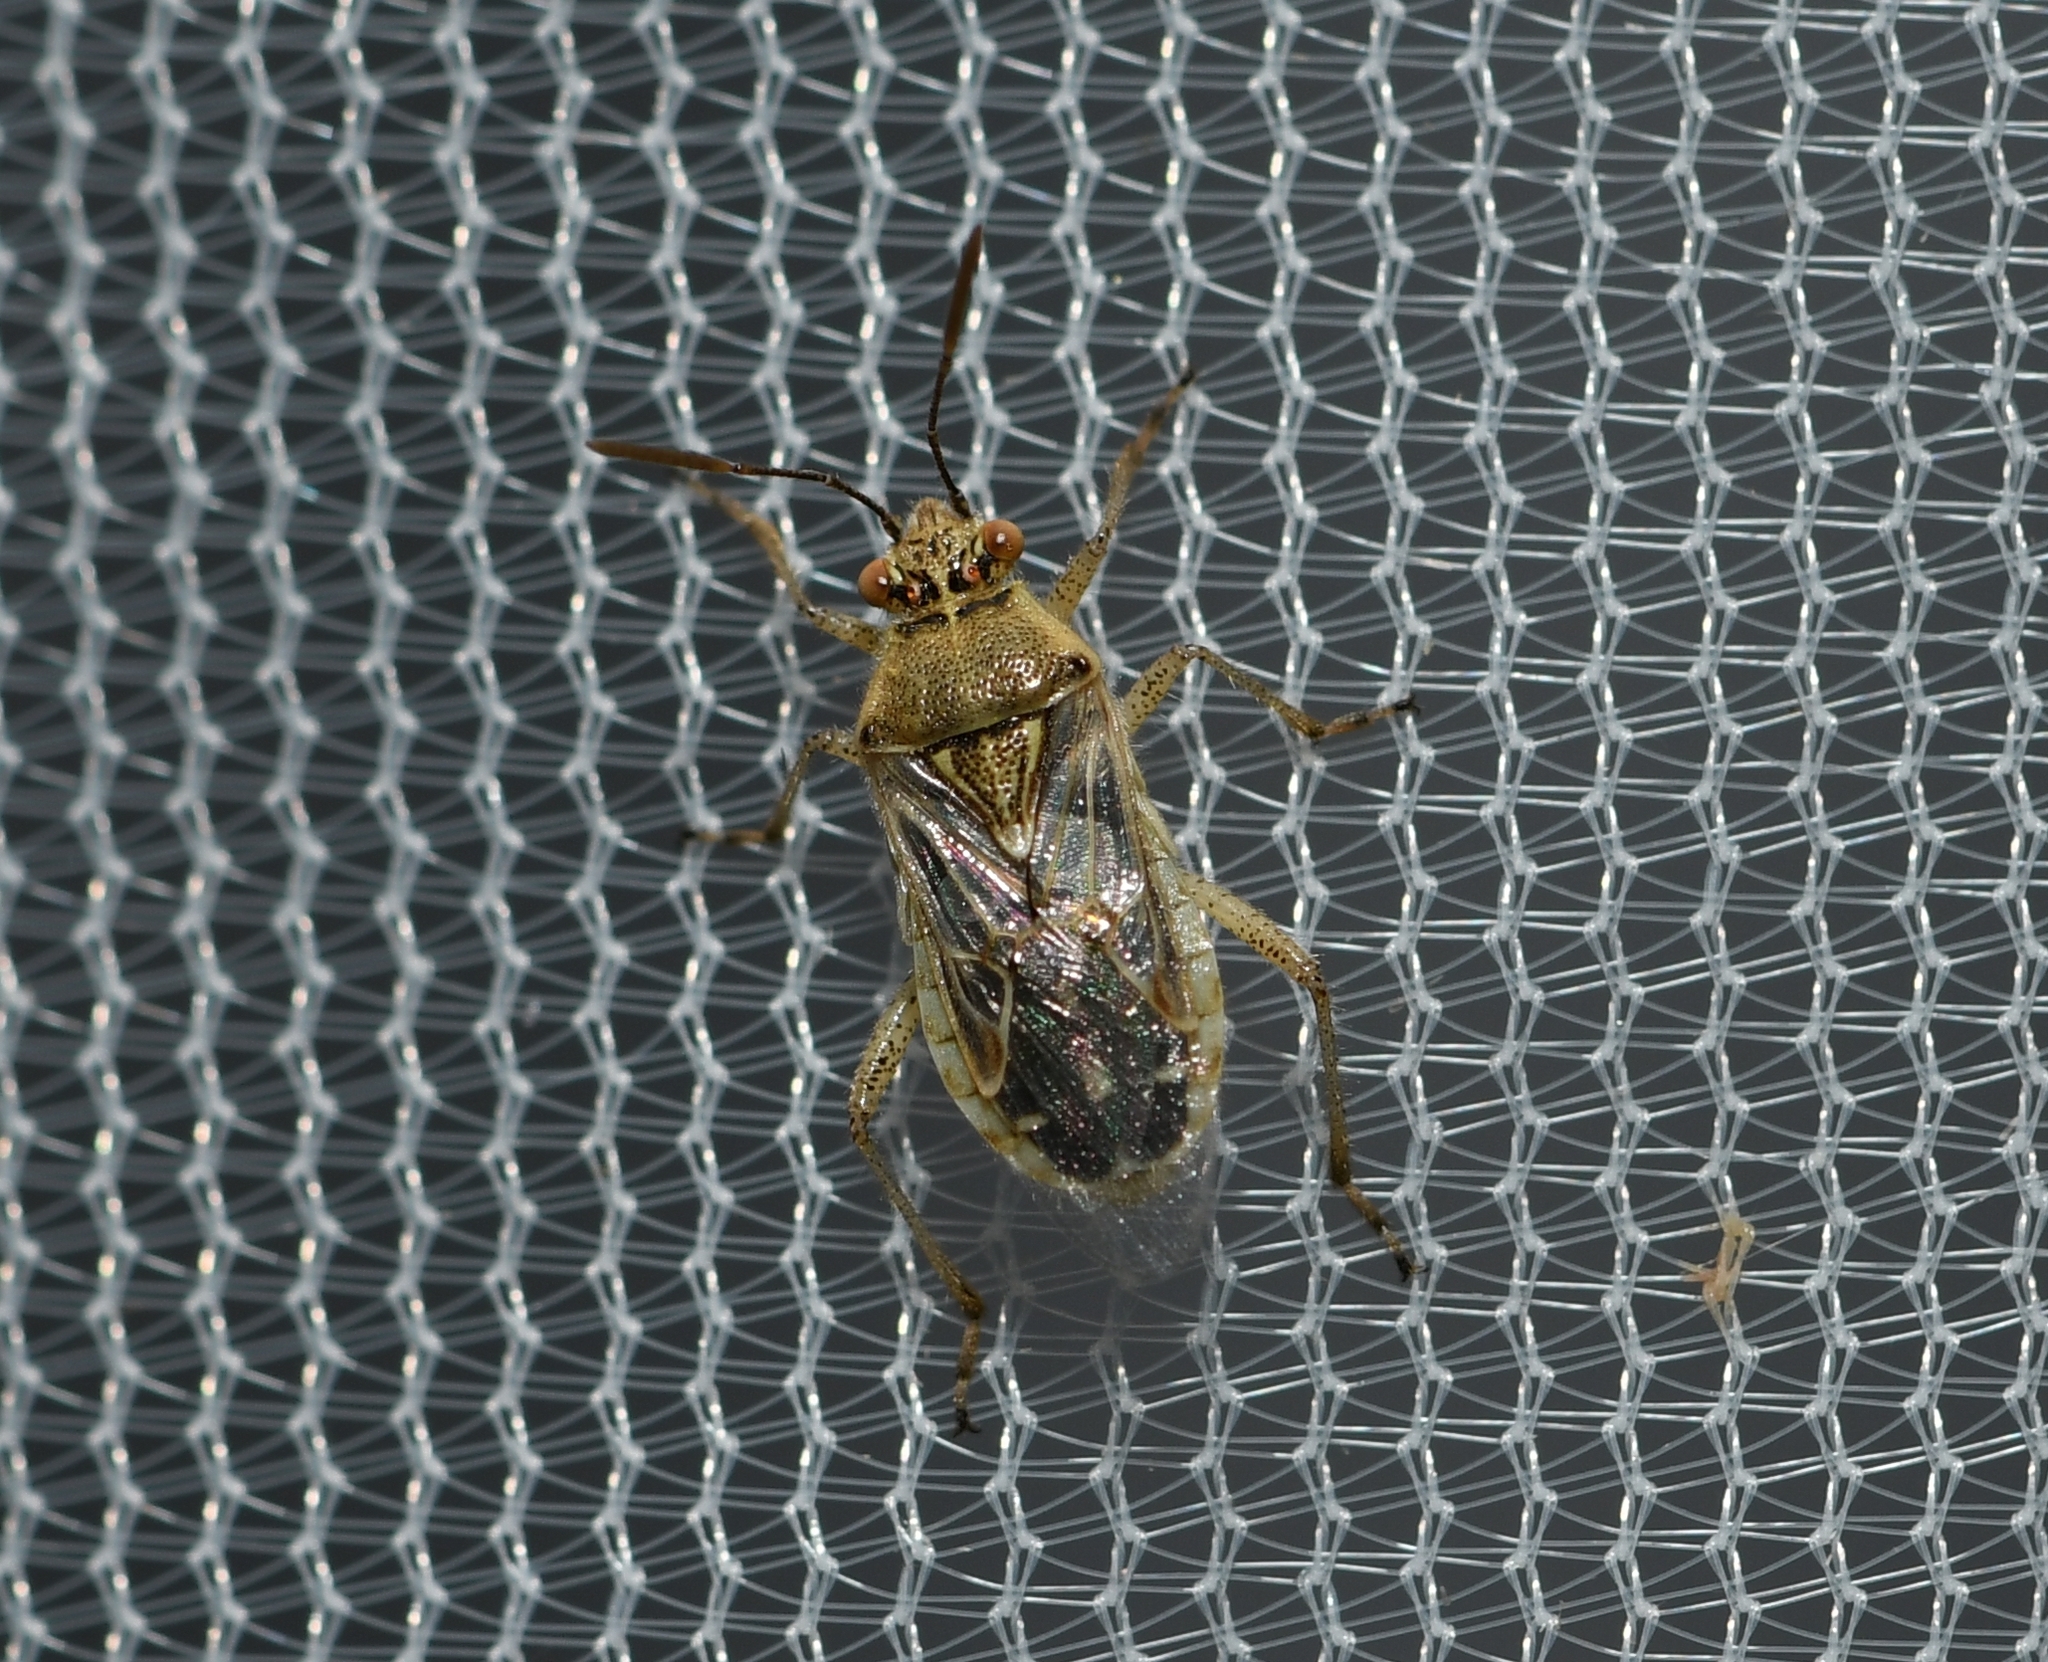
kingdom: Animalia
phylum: Arthropoda
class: Insecta
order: Hemiptera
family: Rhopalidae
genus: Liorhyssus
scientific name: Liorhyssus hyalinus
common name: Scentless plant bug
